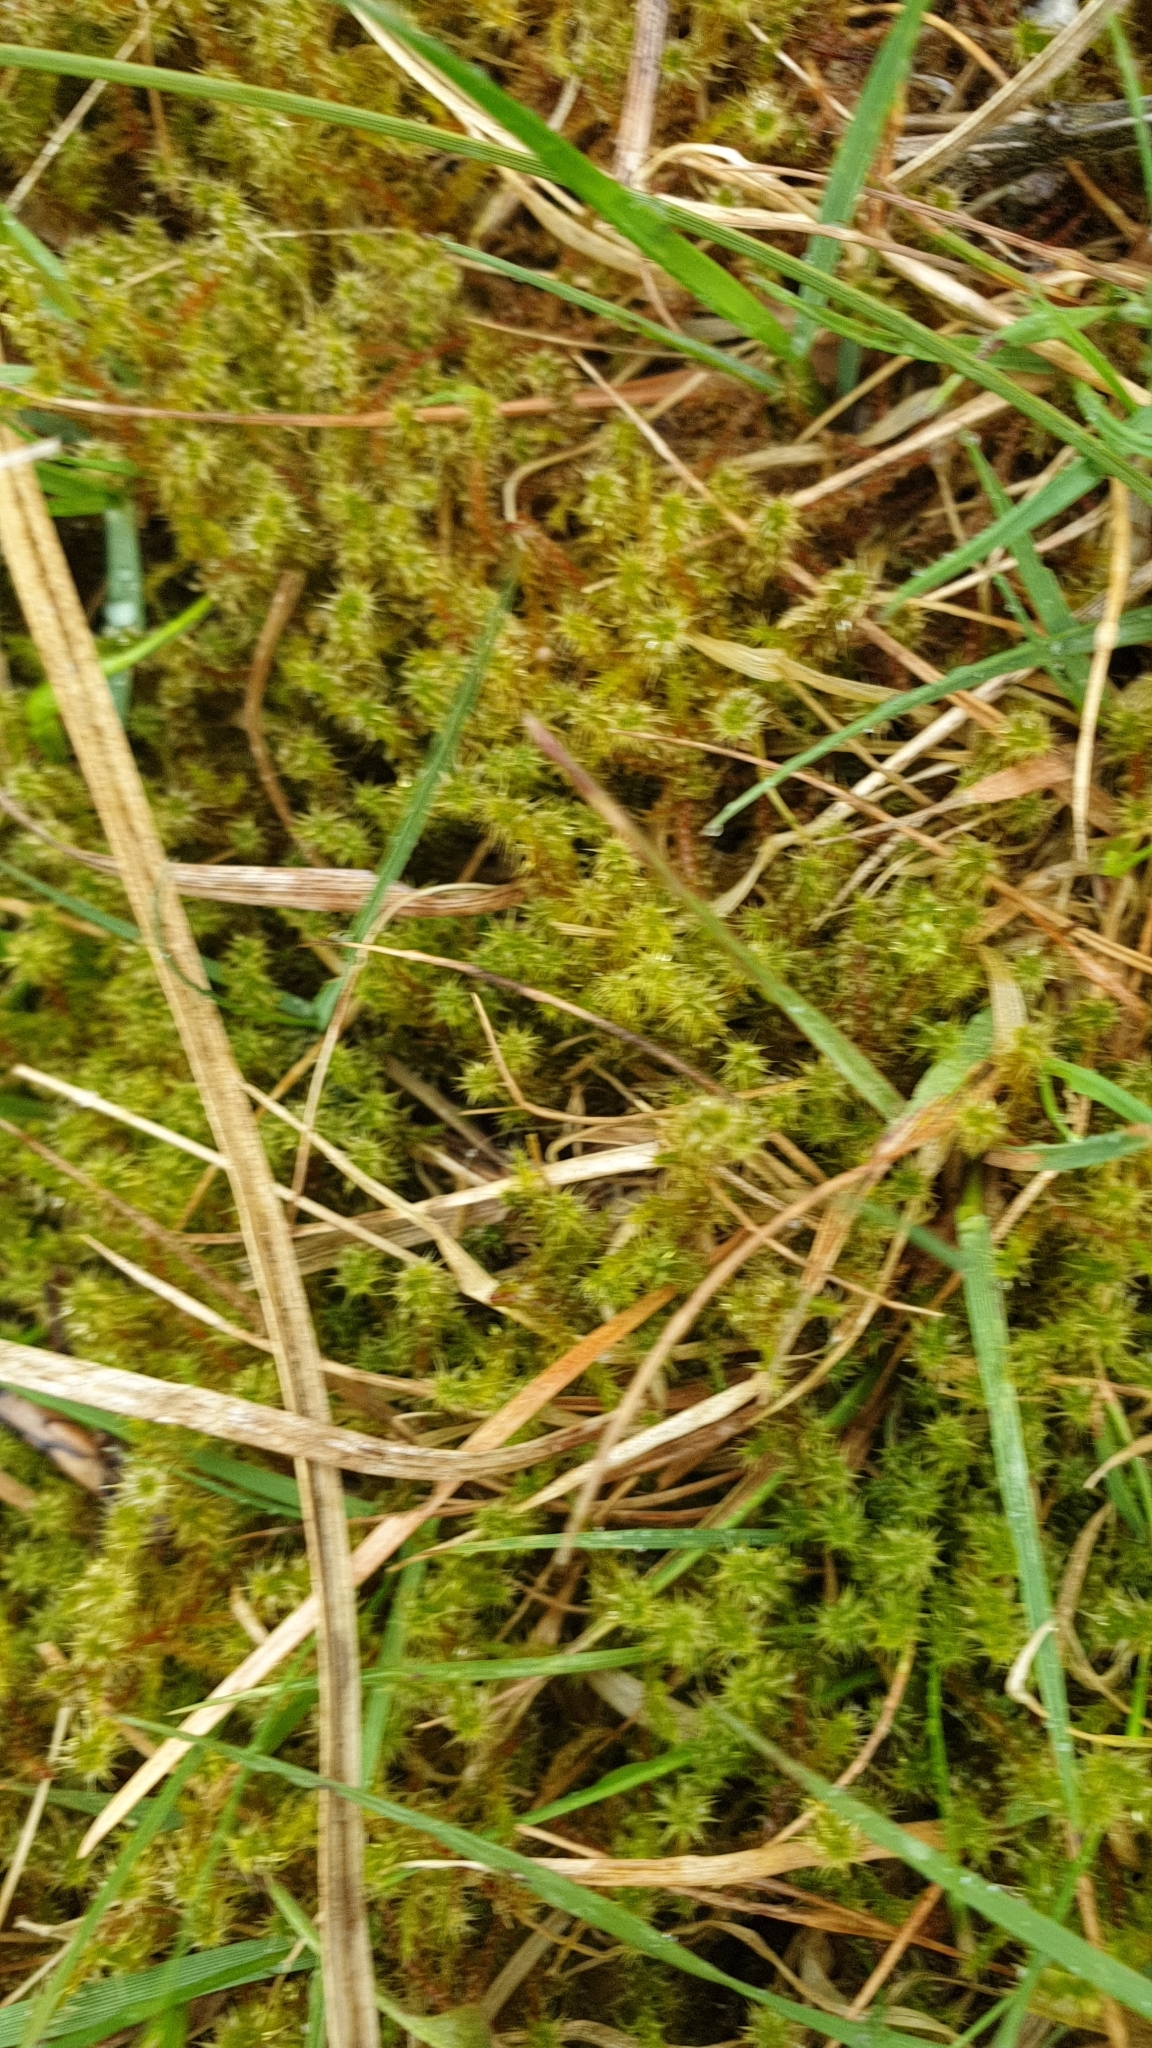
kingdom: Plantae
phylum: Bryophyta
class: Bryopsida
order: Hypnales
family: Hylocomiaceae
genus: Rhytidiadelphus
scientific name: Rhytidiadelphus squarrosus
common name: Springy turf-moss
